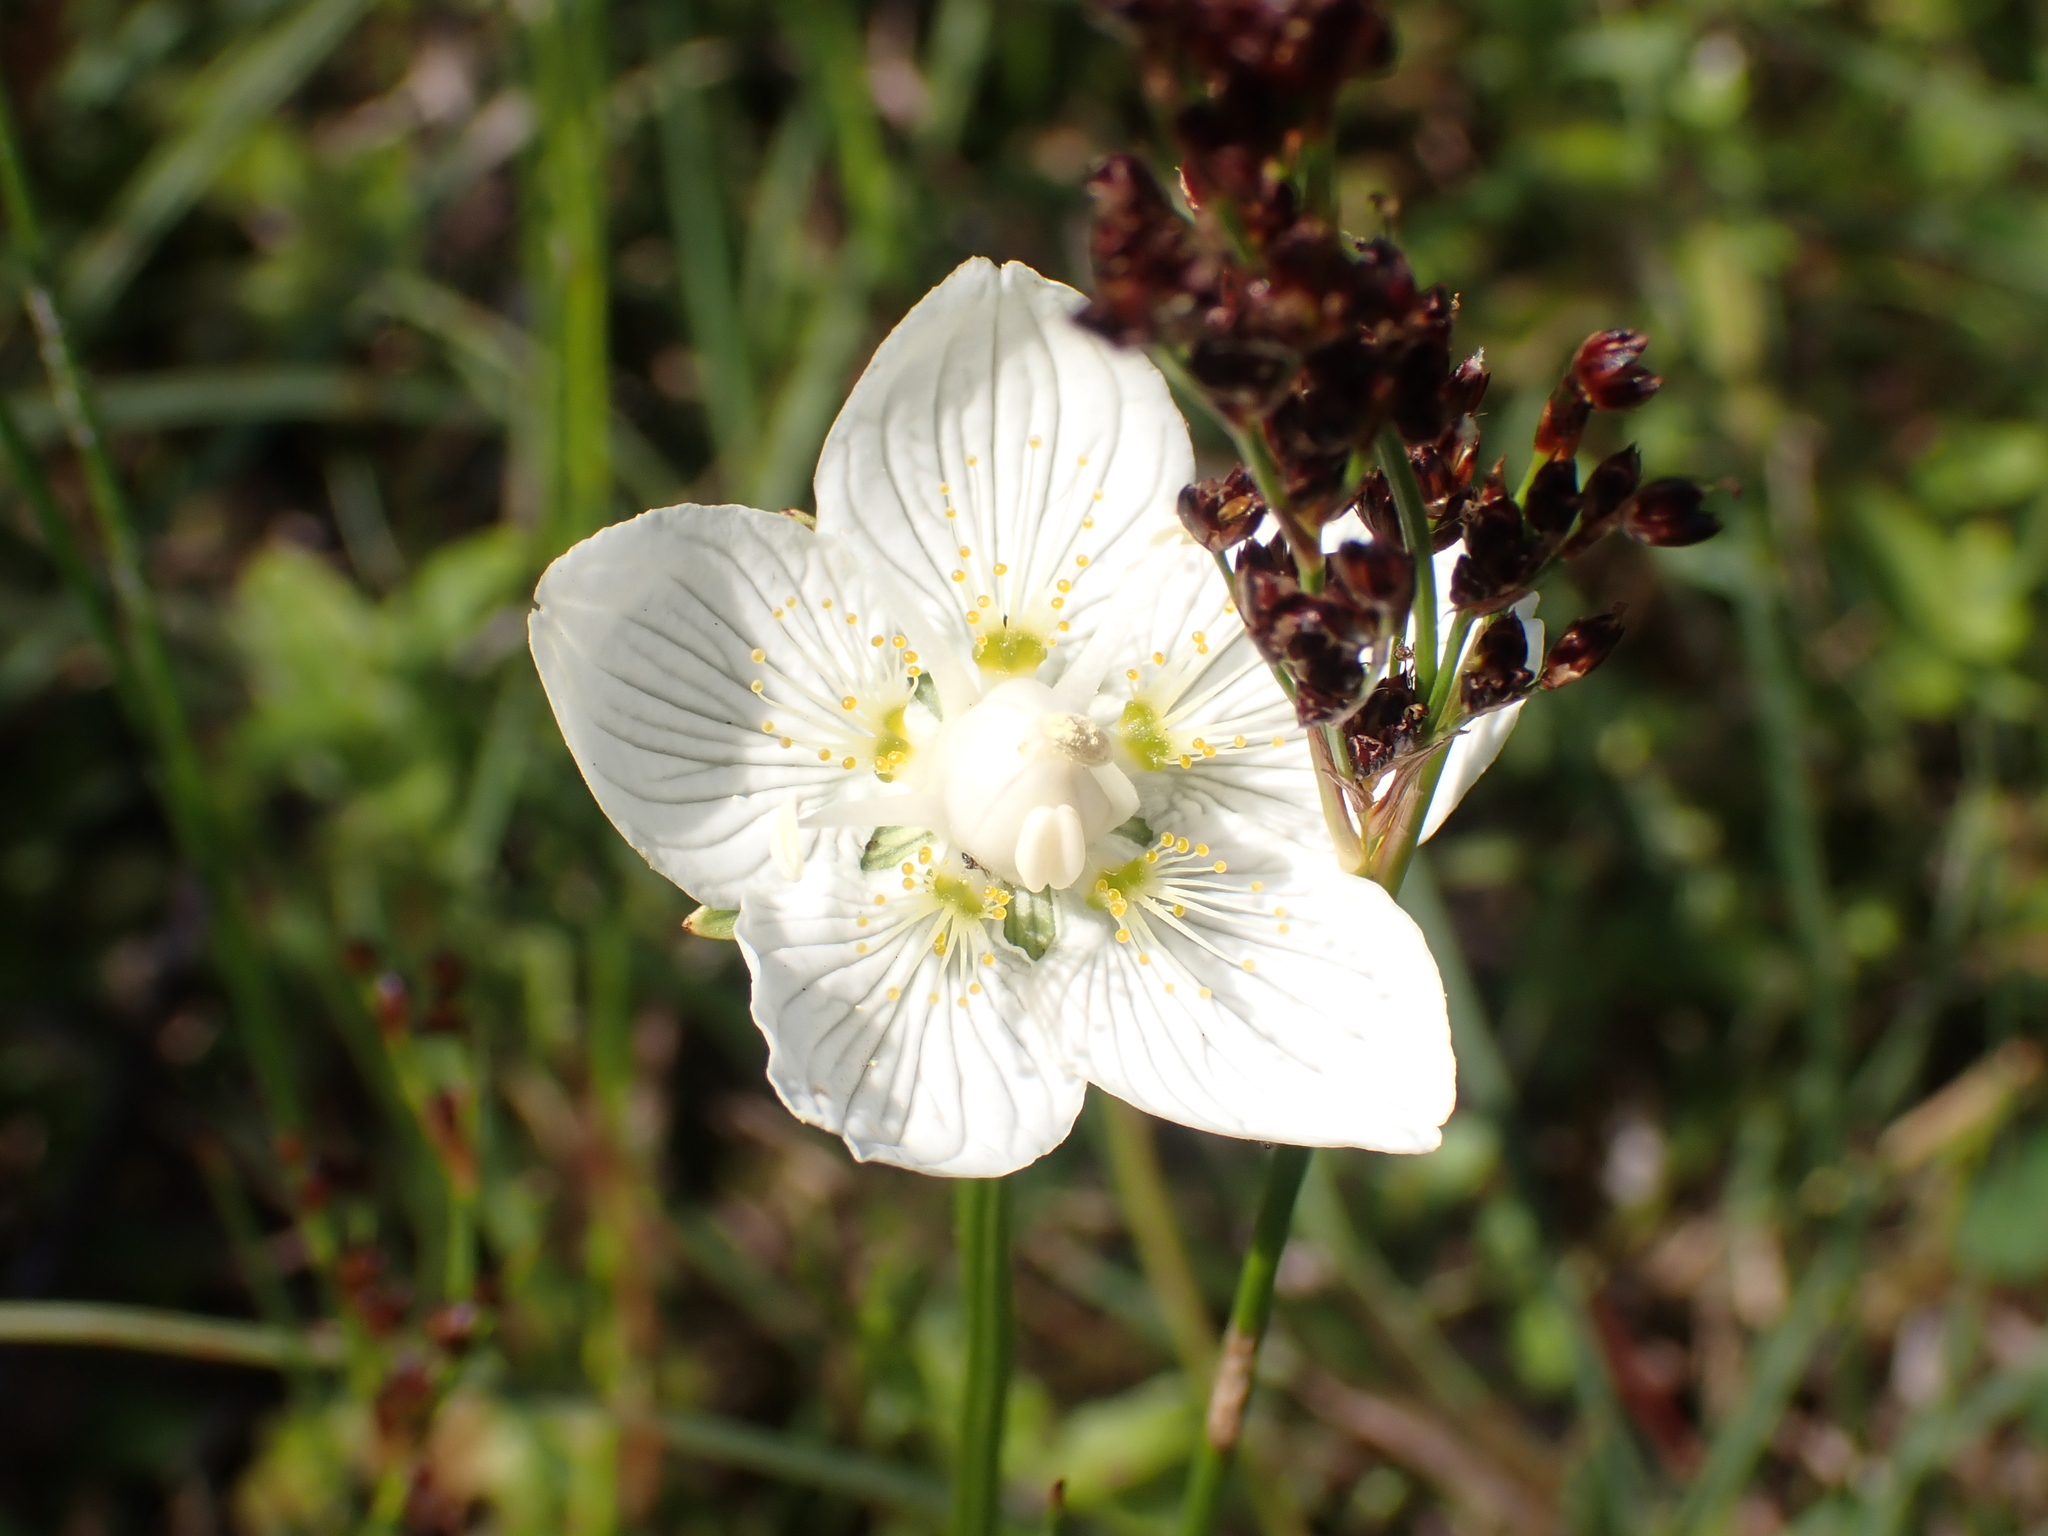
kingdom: Plantae
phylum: Tracheophyta
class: Magnoliopsida
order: Celastrales
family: Parnassiaceae
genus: Parnassia
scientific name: Parnassia palustris
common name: Grass-of-parnassus
